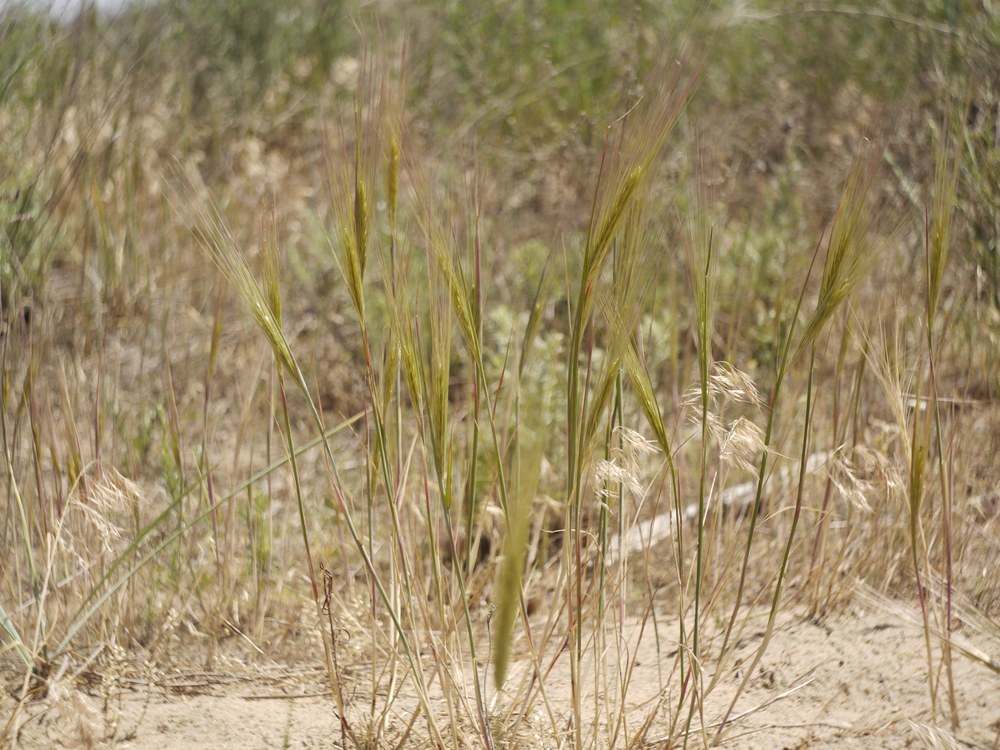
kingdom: Plantae
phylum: Tracheophyta
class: Liliopsida
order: Poales
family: Poaceae
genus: Secale
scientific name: Secale sylvestre
